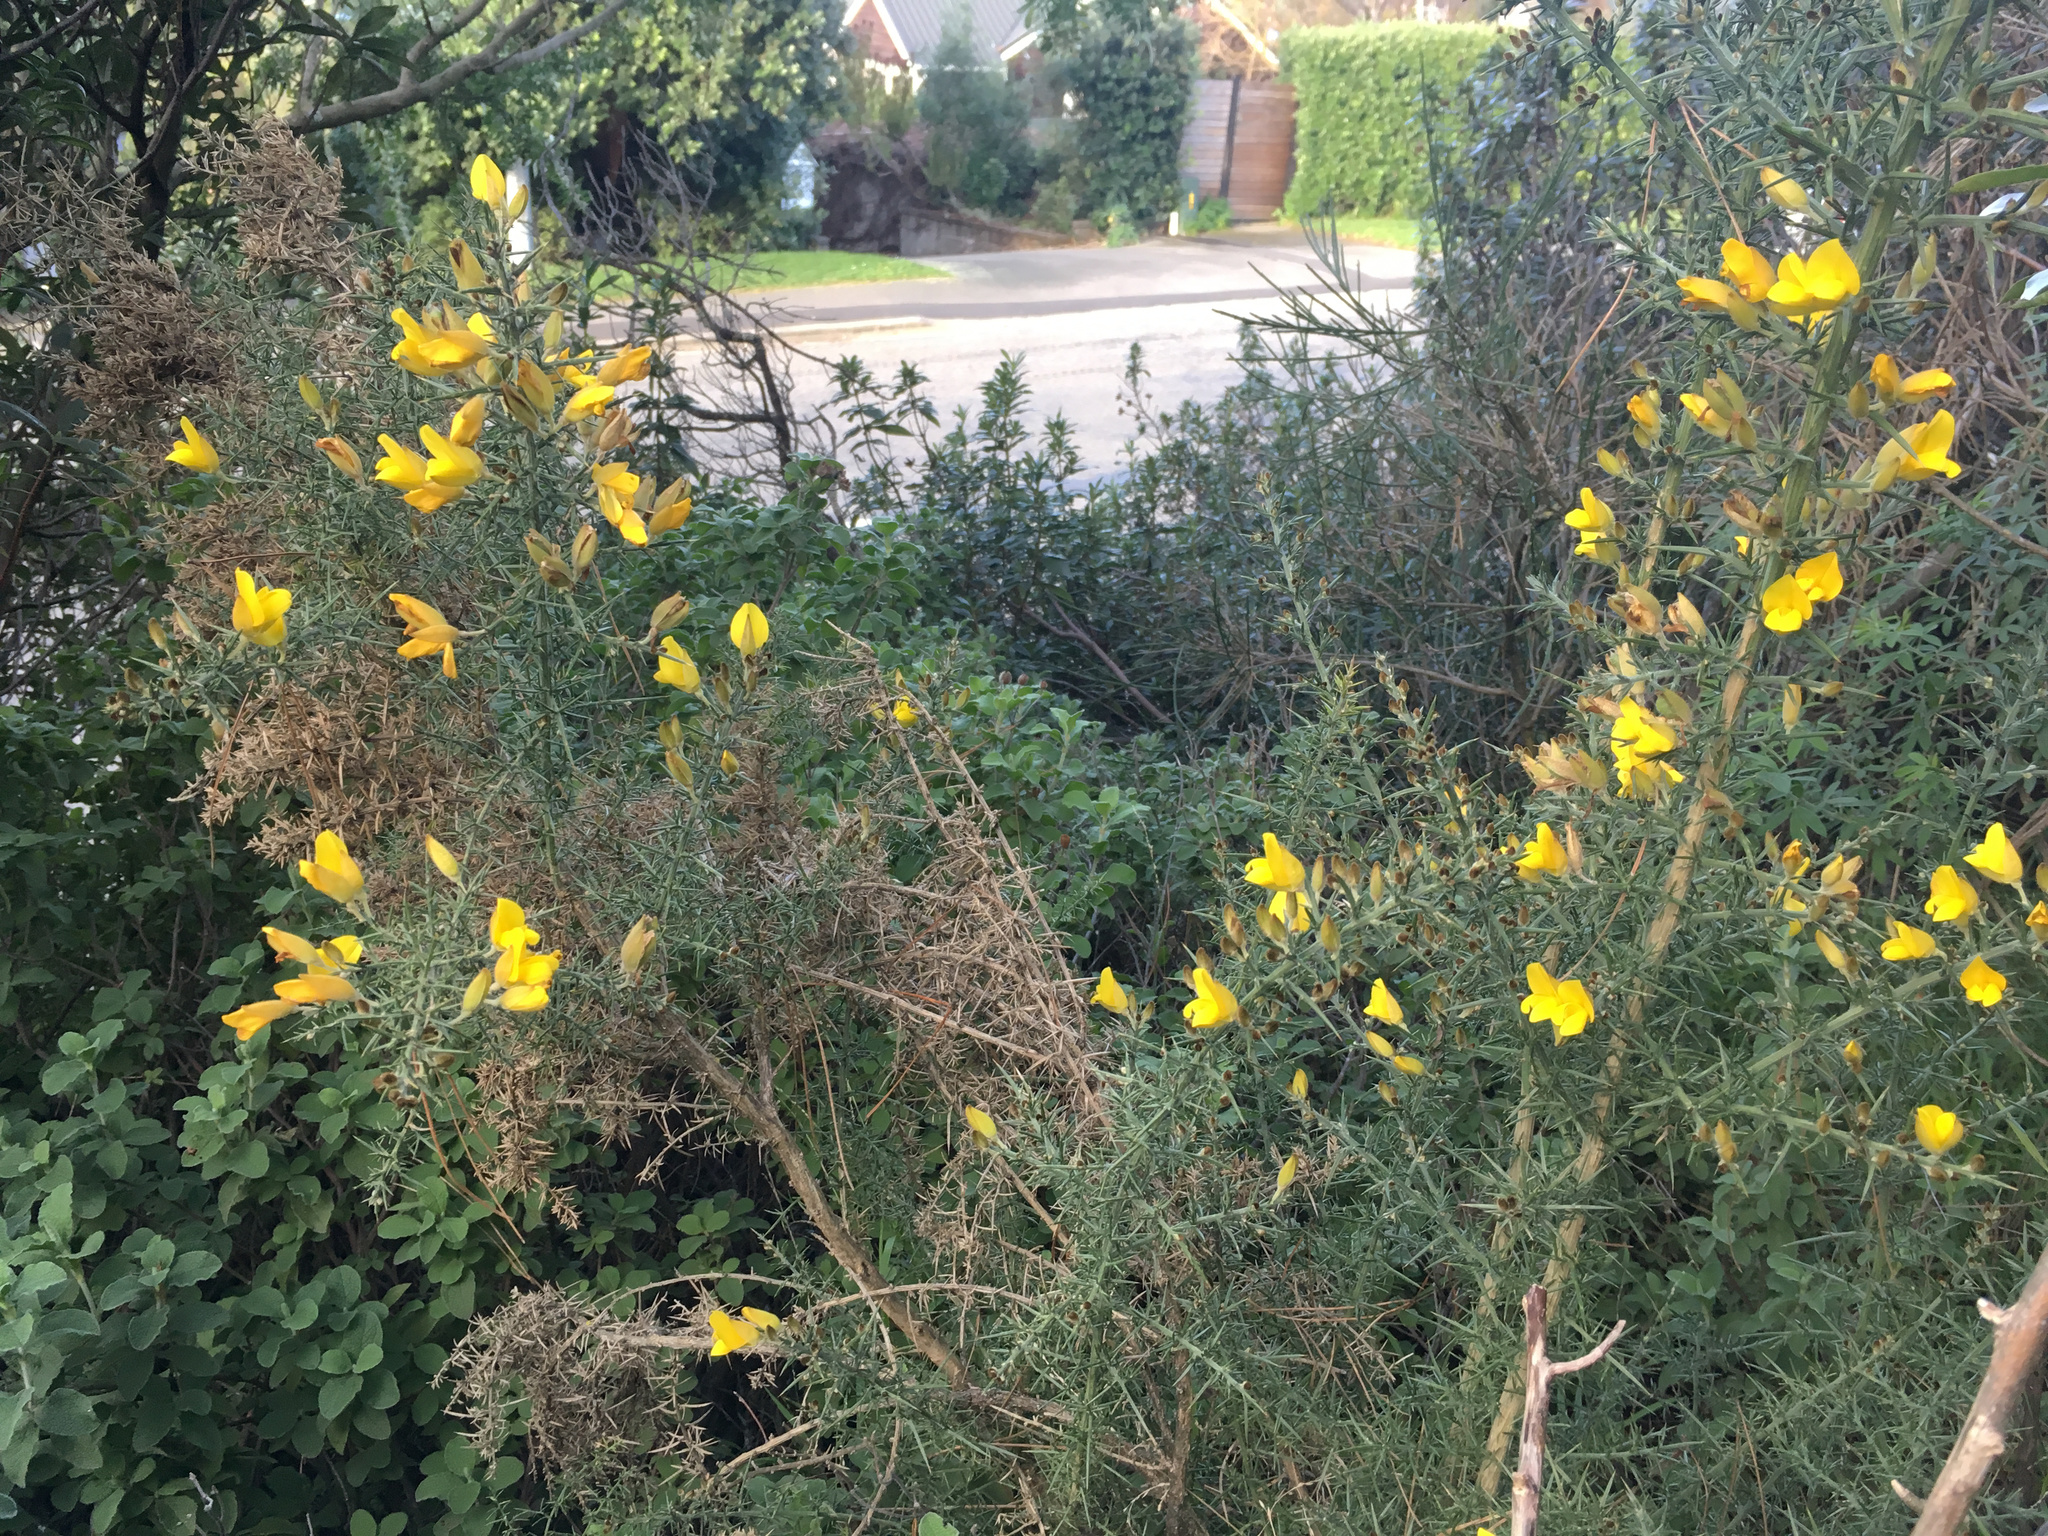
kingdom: Plantae
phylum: Tracheophyta
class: Magnoliopsida
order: Fabales
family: Fabaceae
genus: Ulex
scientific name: Ulex europaeus
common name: Common gorse
